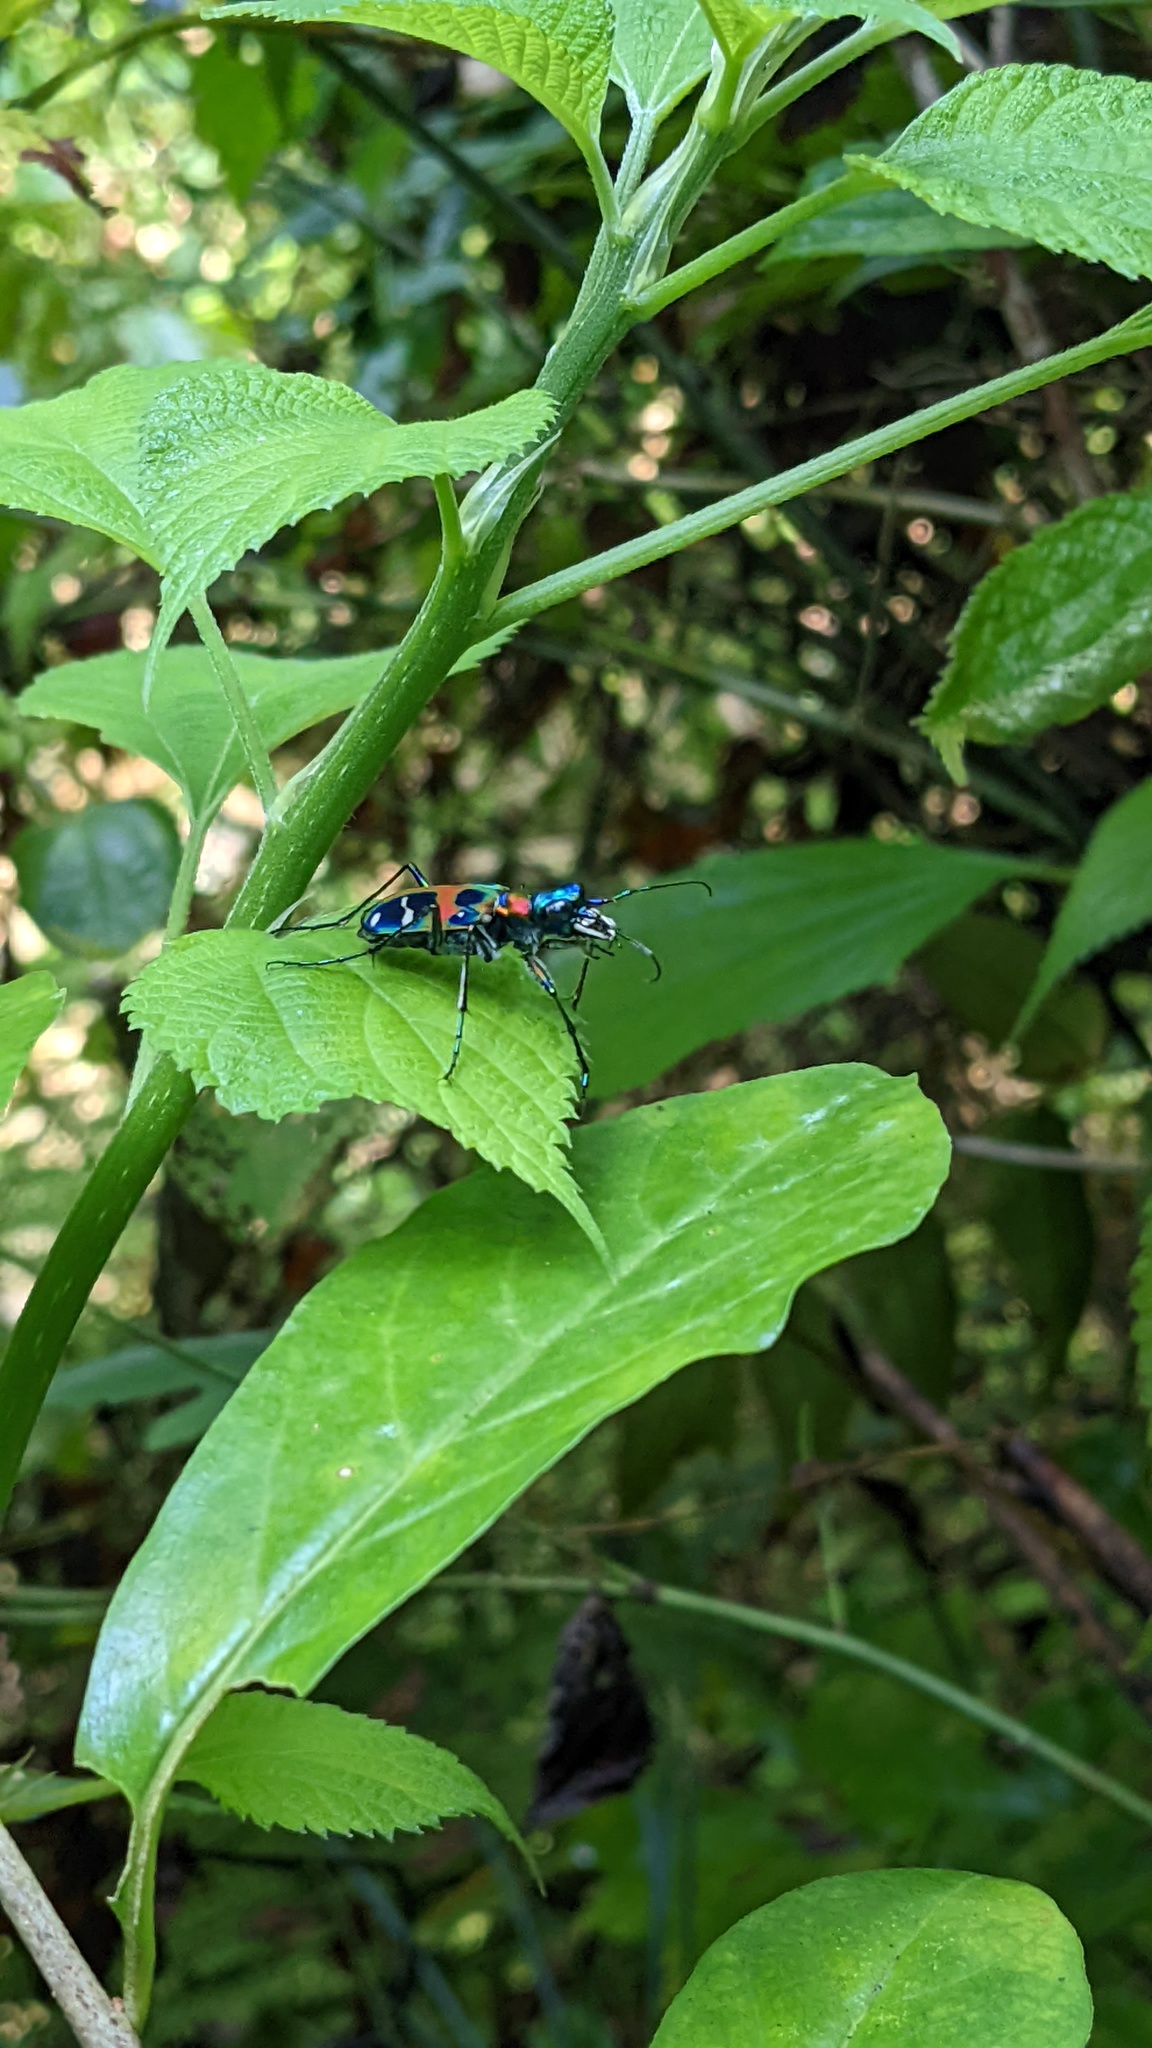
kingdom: Animalia
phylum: Arthropoda
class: Insecta
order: Coleoptera
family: Carabidae
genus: Cicindela
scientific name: Cicindela chinensis
